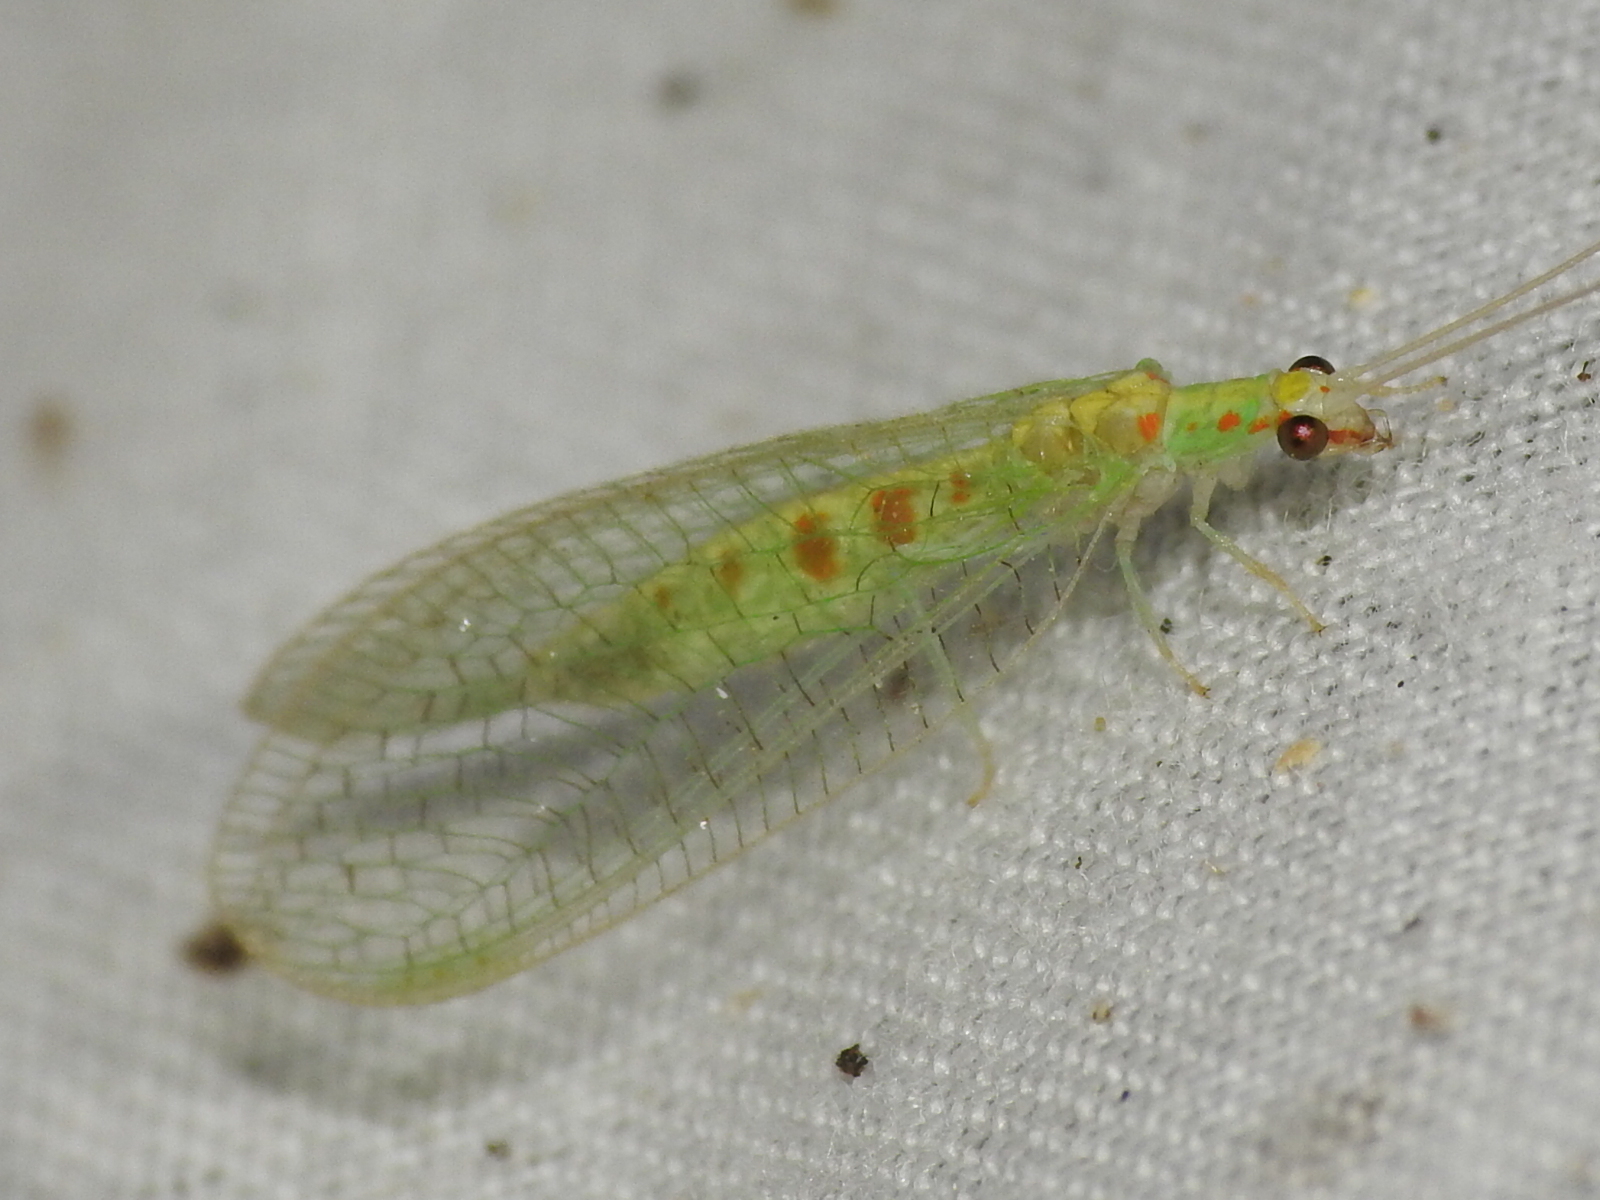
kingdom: Animalia
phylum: Arthropoda
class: Insecta
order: Neuroptera
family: Chrysopidae
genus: Chrysopa
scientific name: Chrysopa quadripunctata
